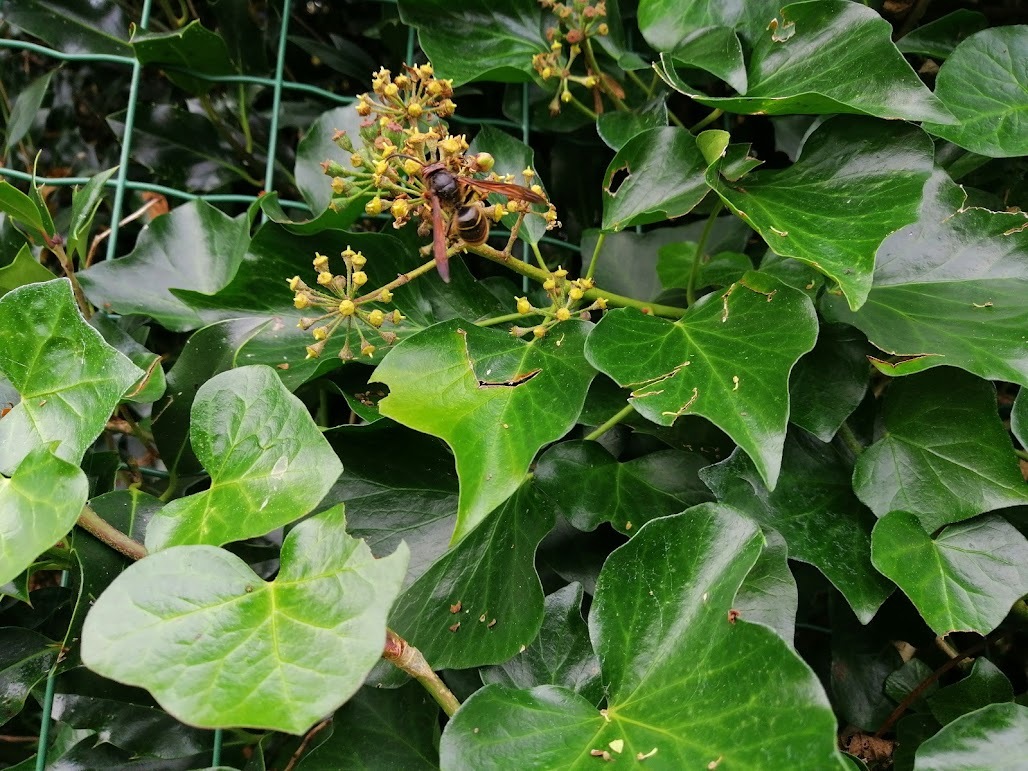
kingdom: Animalia
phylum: Arthropoda
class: Insecta
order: Hymenoptera
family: Vespidae
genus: Vespa
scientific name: Vespa velutina
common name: Asian hornet
